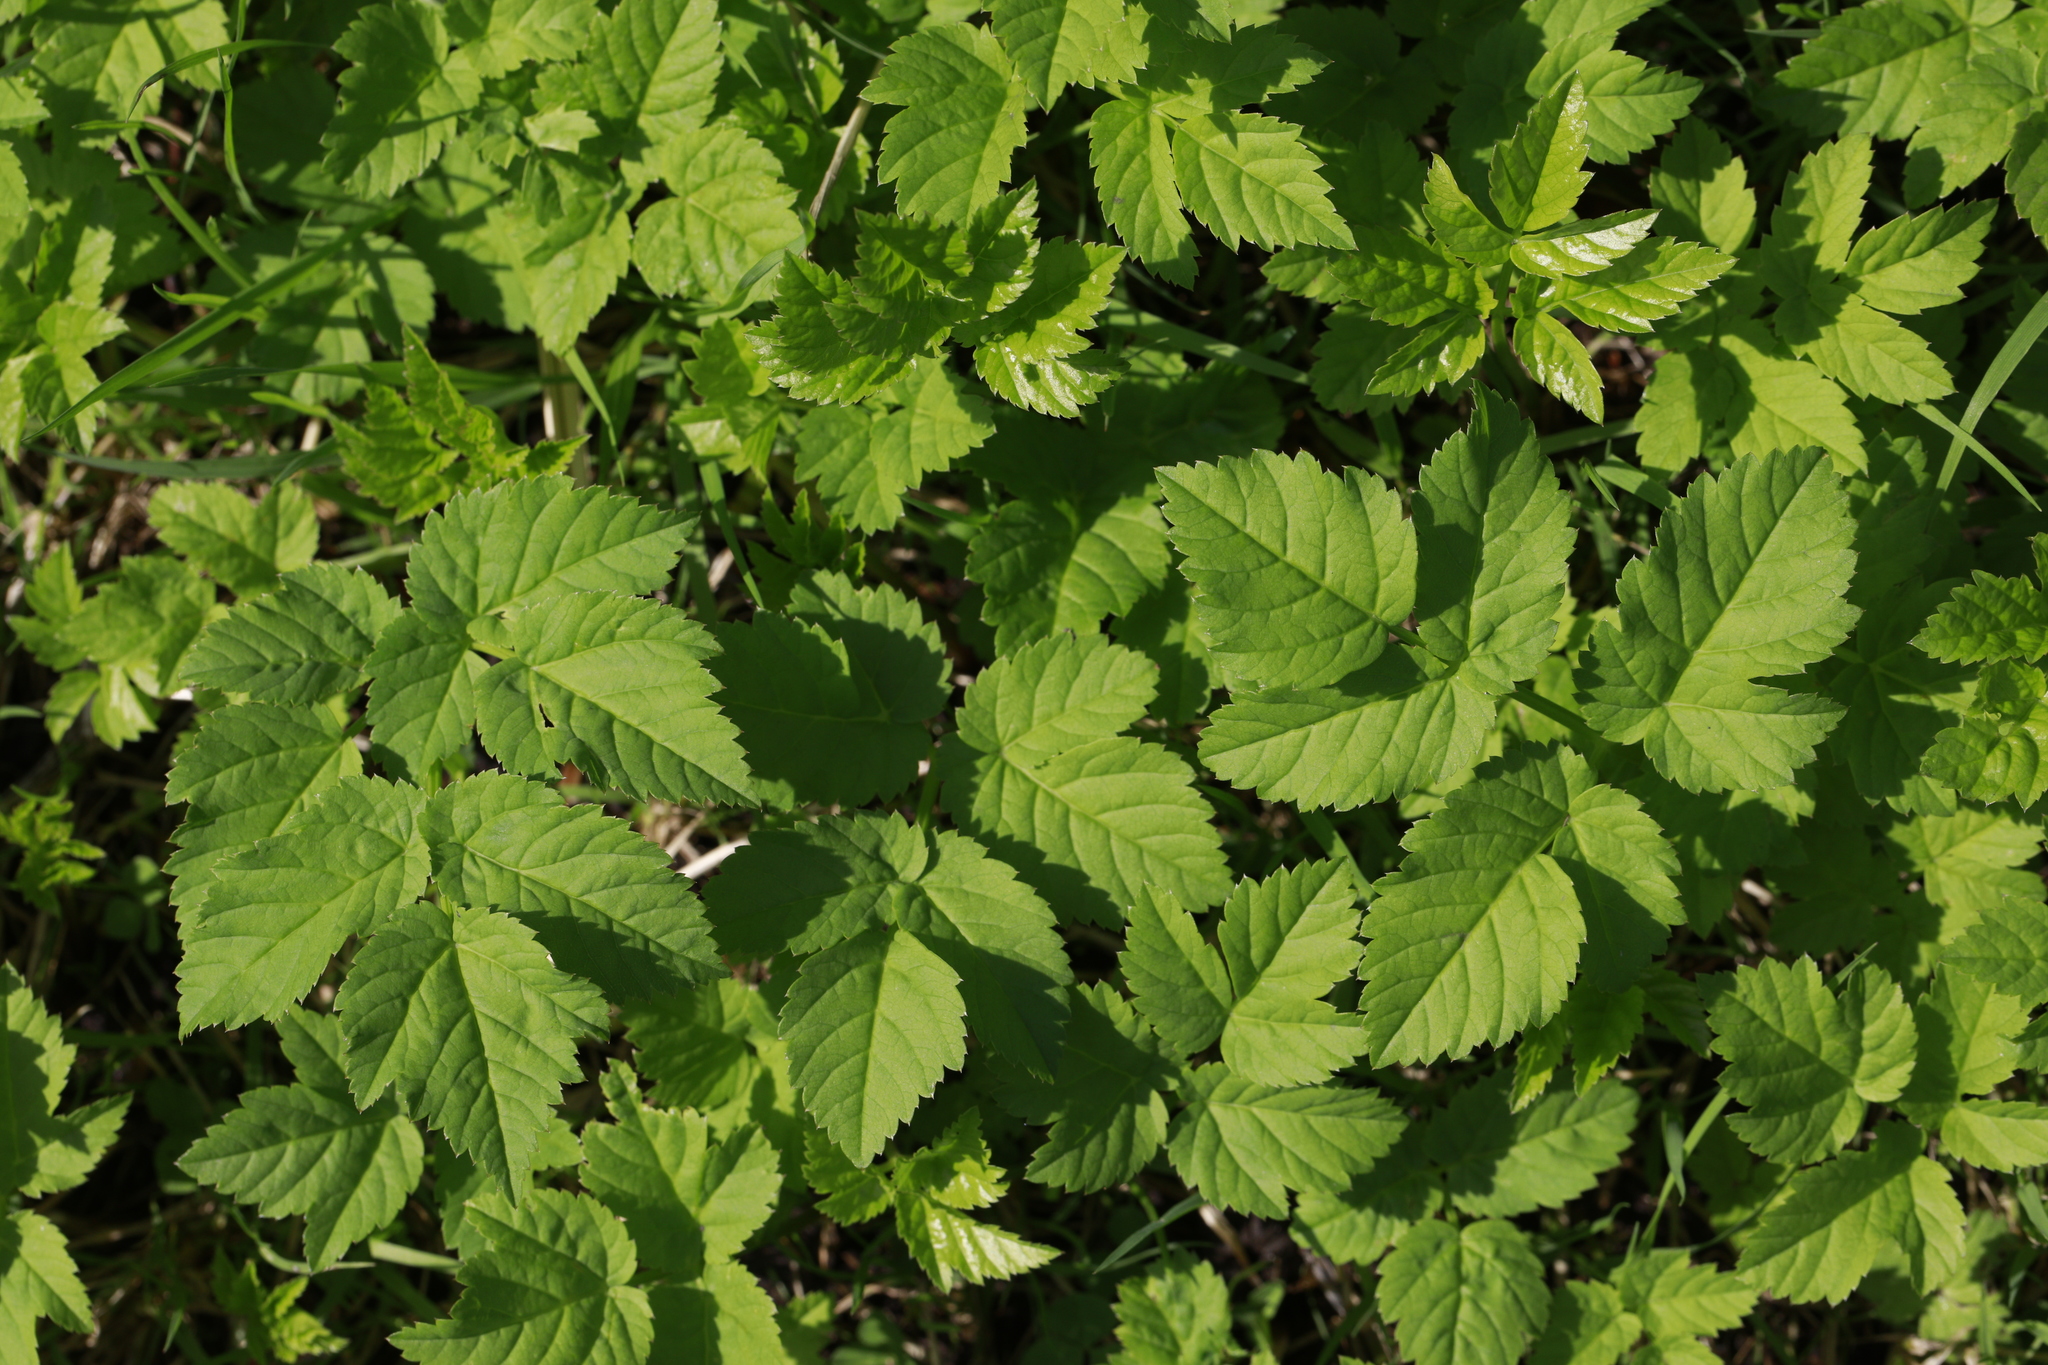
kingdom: Plantae
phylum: Tracheophyta
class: Magnoliopsida
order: Apiales
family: Apiaceae
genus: Aegopodium
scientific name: Aegopodium podagraria
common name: Ground-elder
